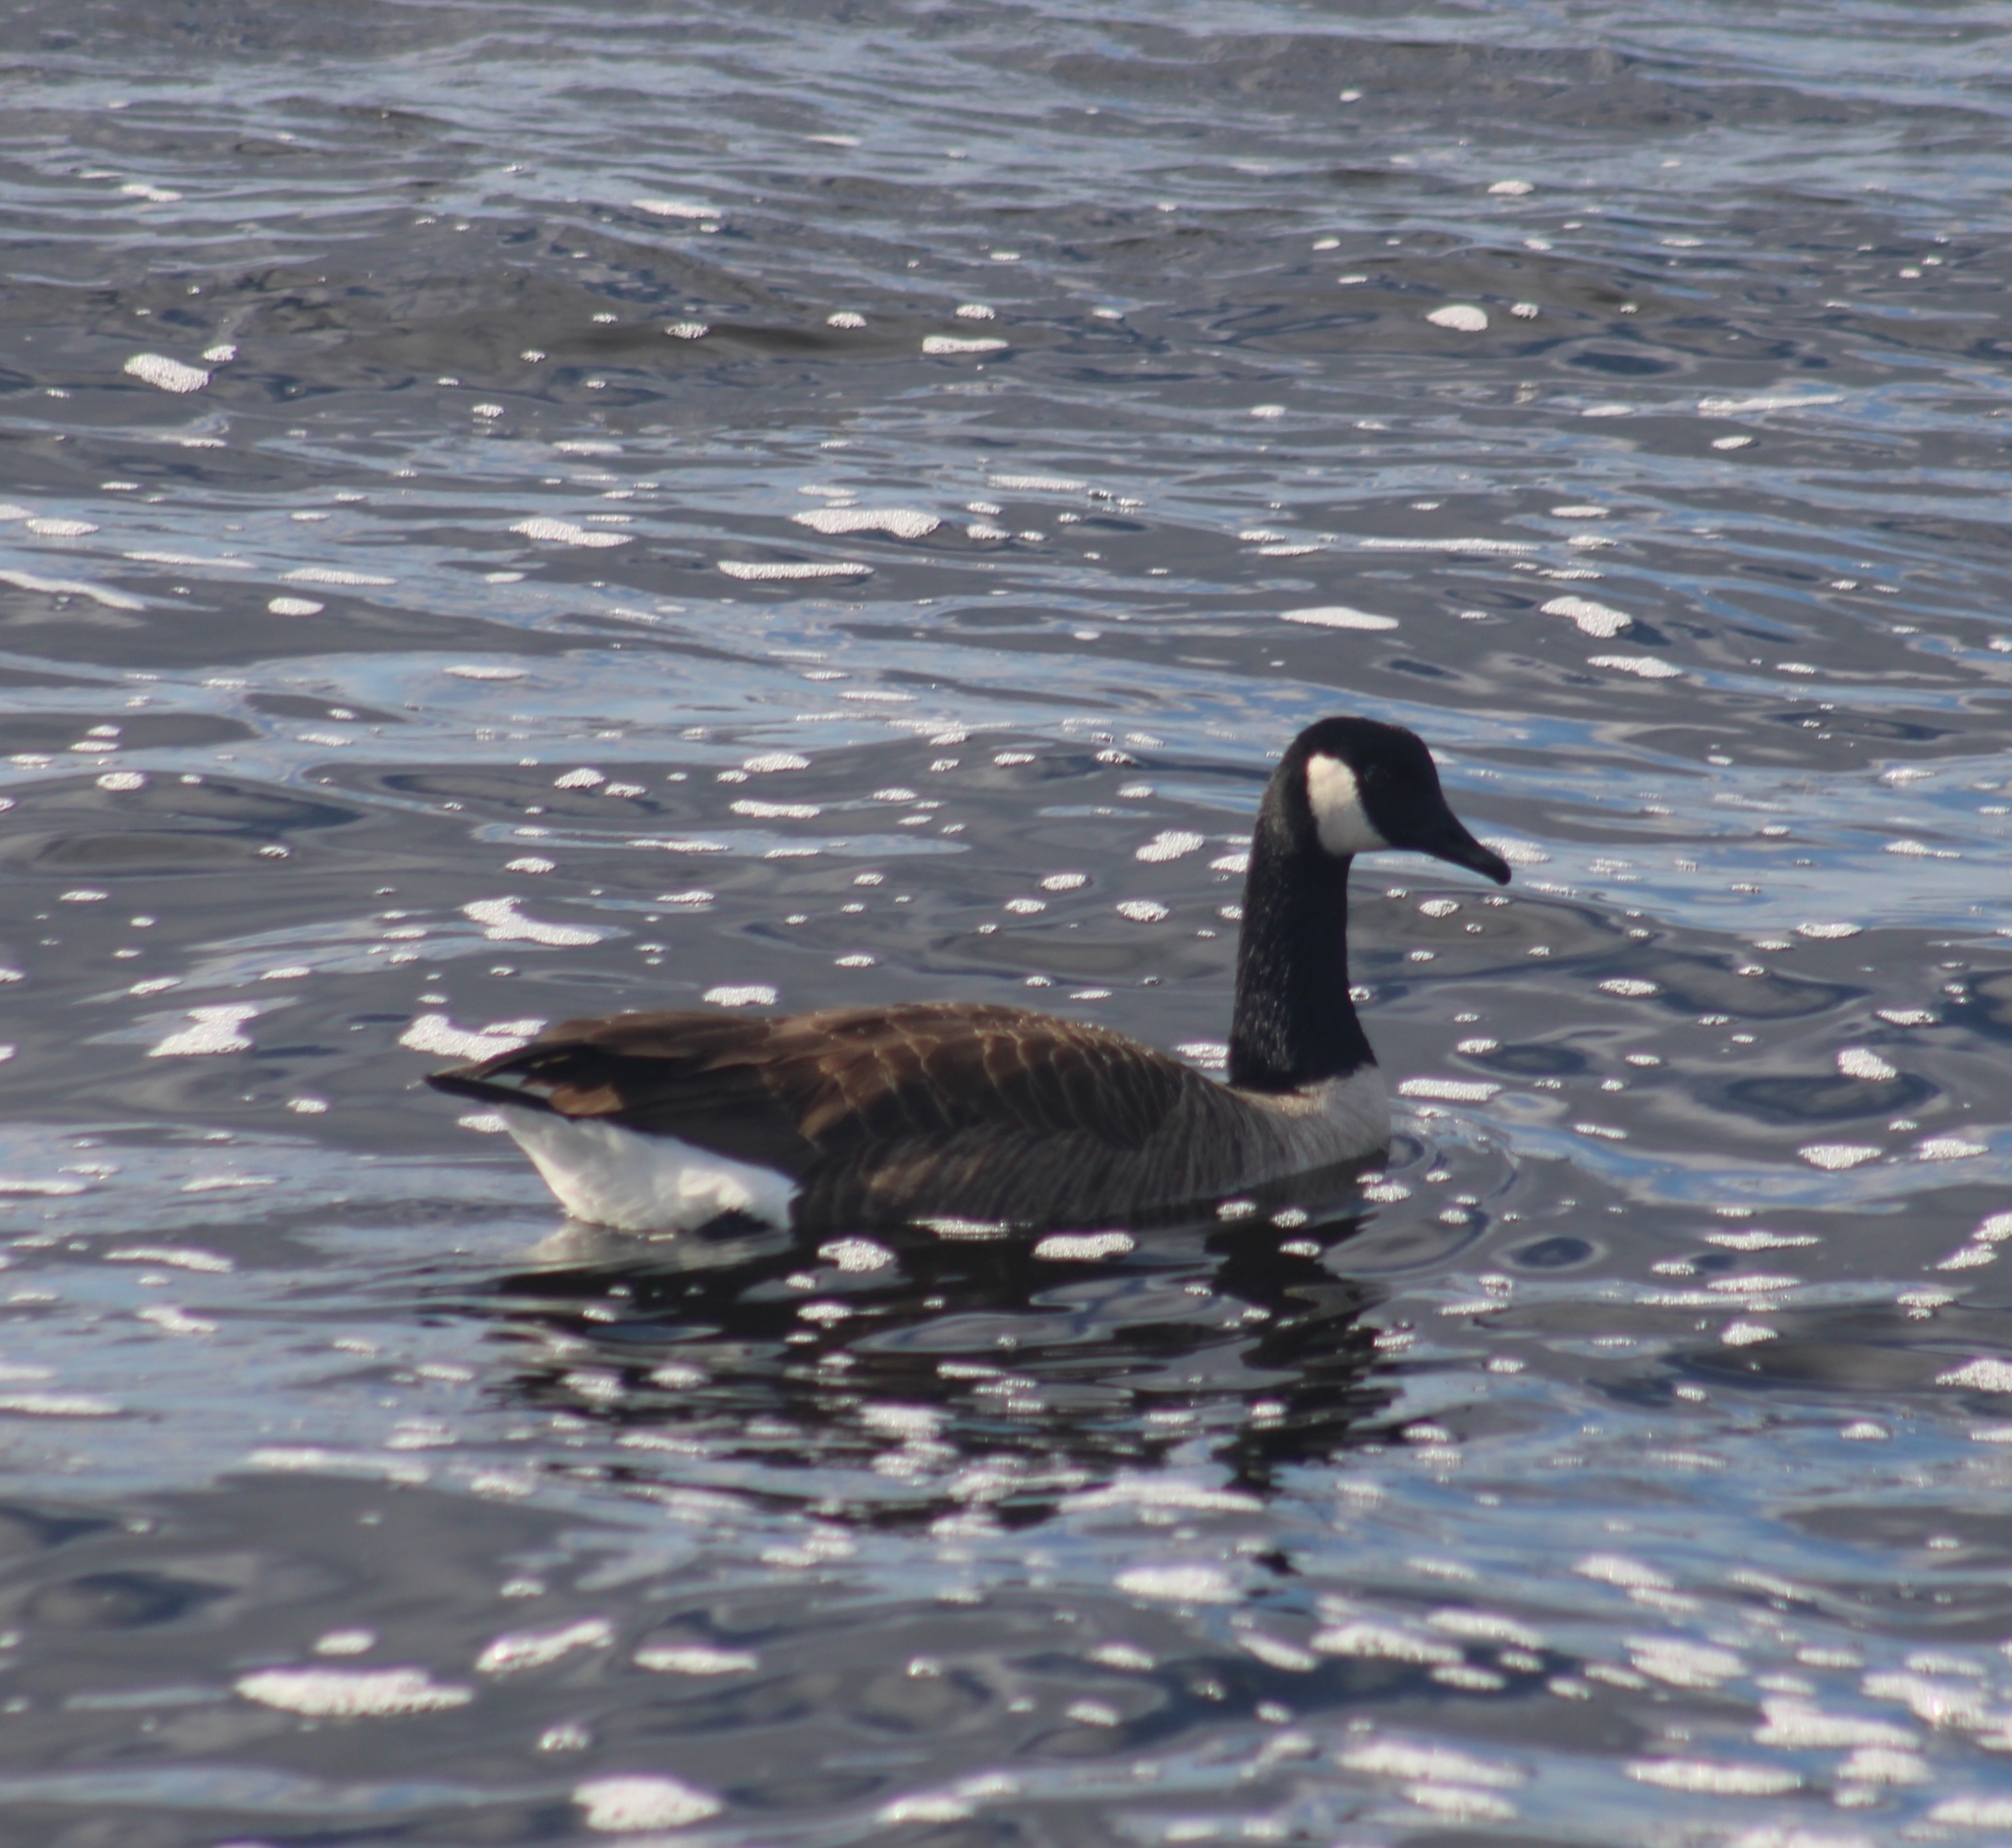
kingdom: Animalia
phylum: Chordata
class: Aves
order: Anseriformes
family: Anatidae
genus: Branta
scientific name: Branta canadensis
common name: Canada goose
